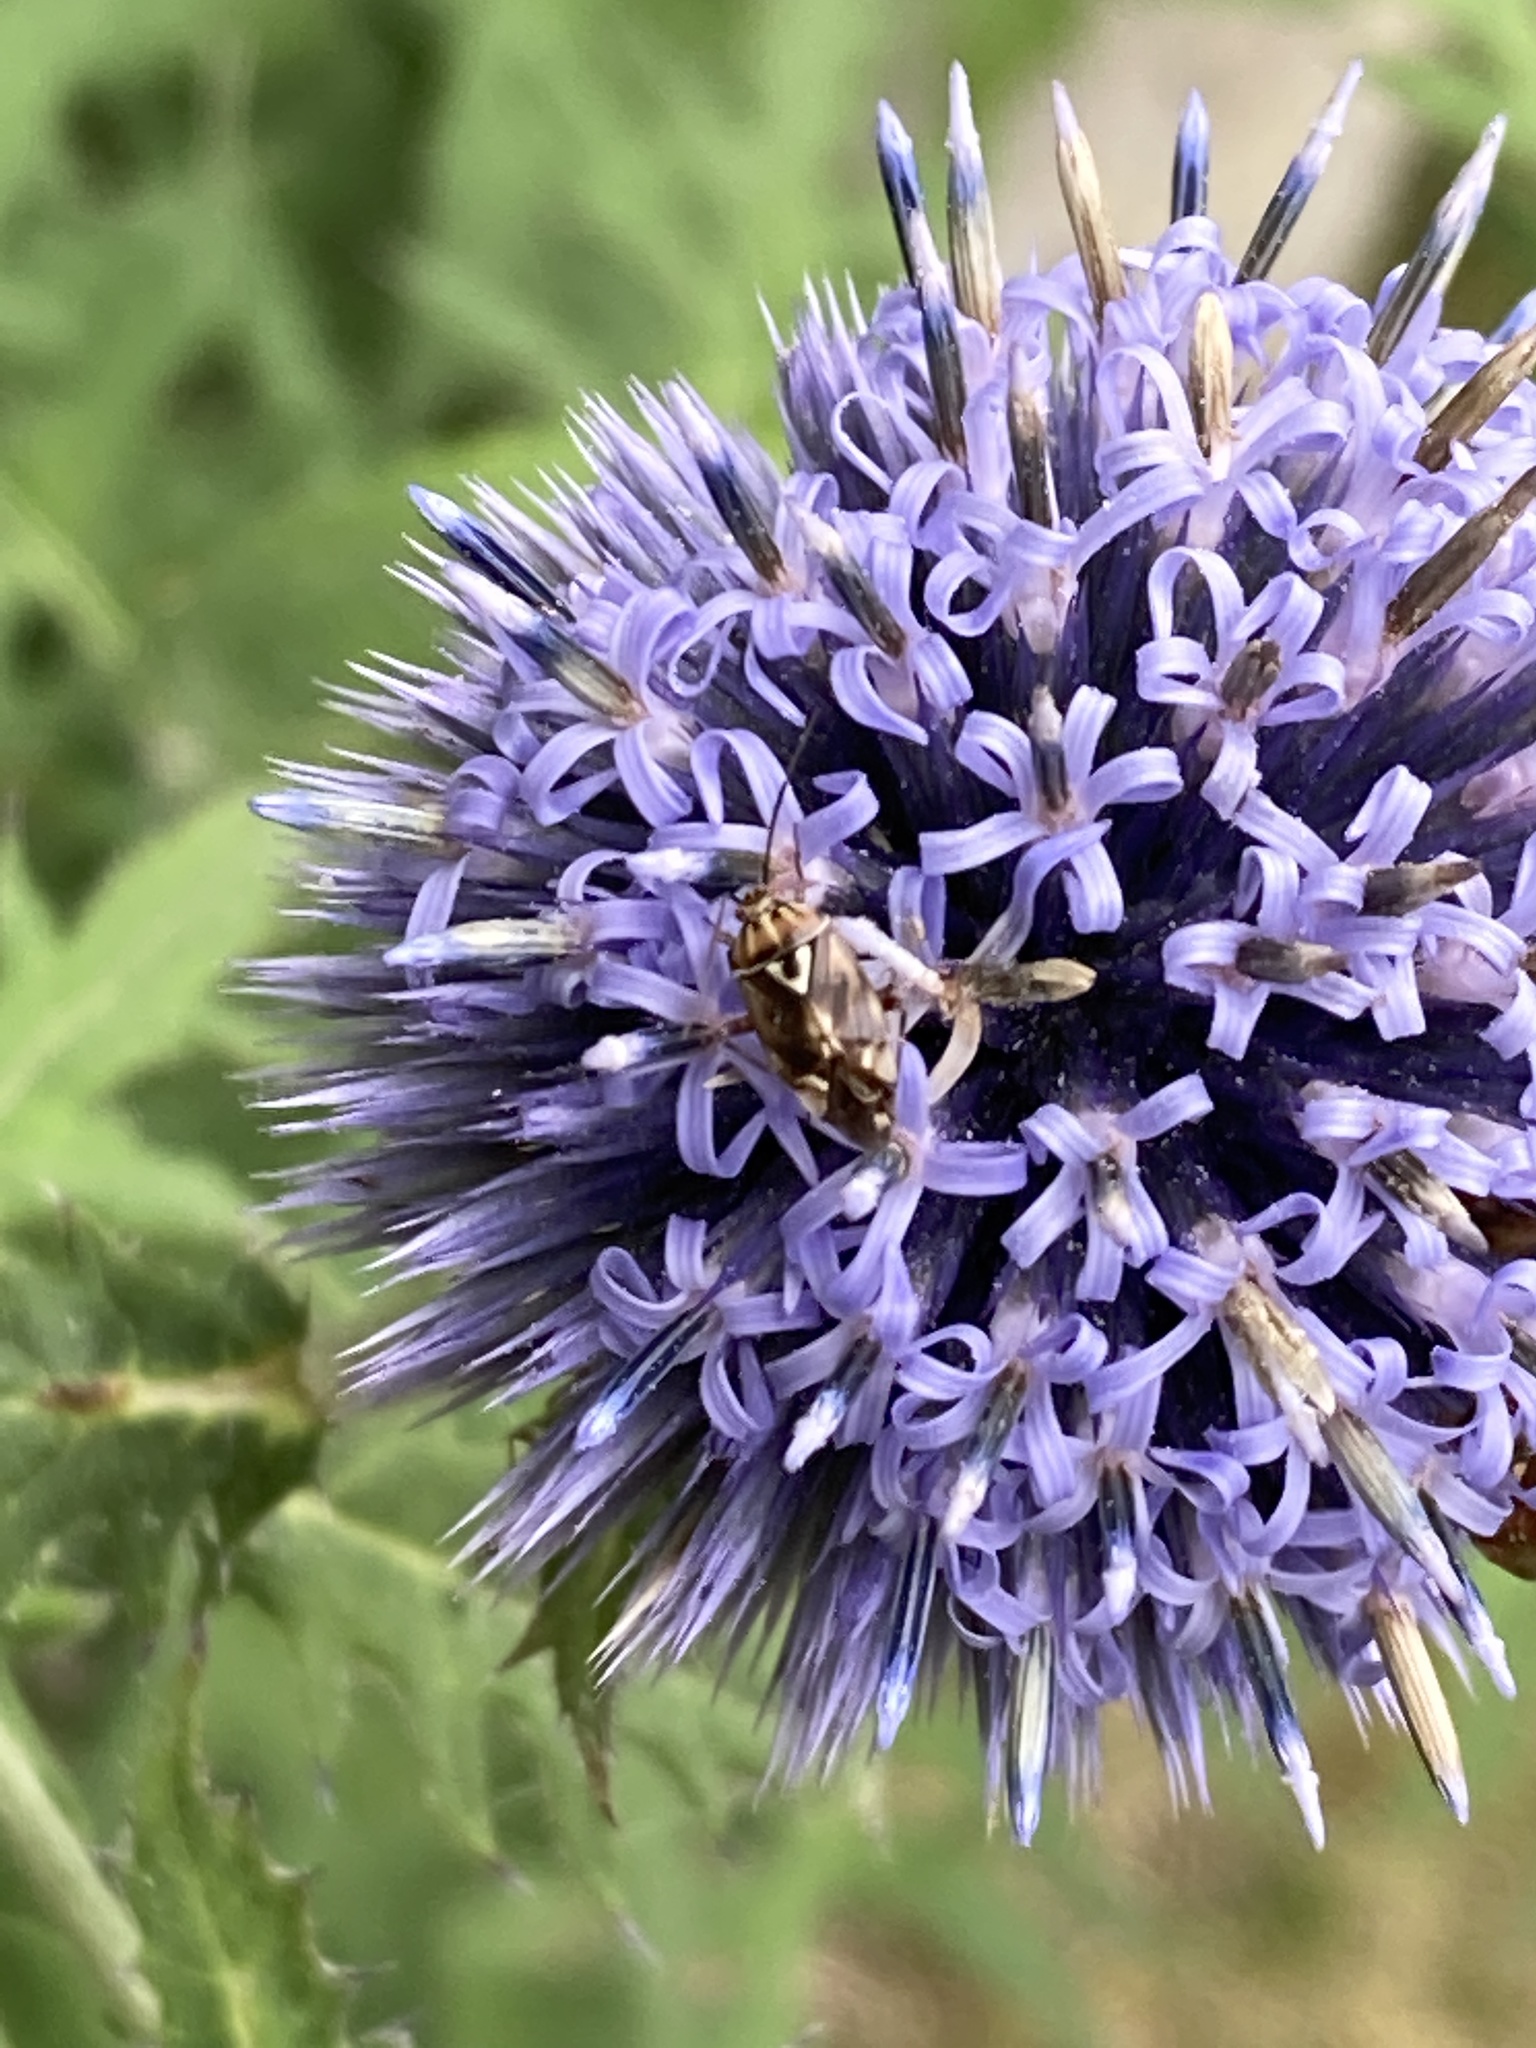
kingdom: Animalia
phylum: Arthropoda
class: Insecta
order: Hemiptera
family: Miridae
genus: Lygus
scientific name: Lygus lineolaris
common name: North american tarnished plant bug
